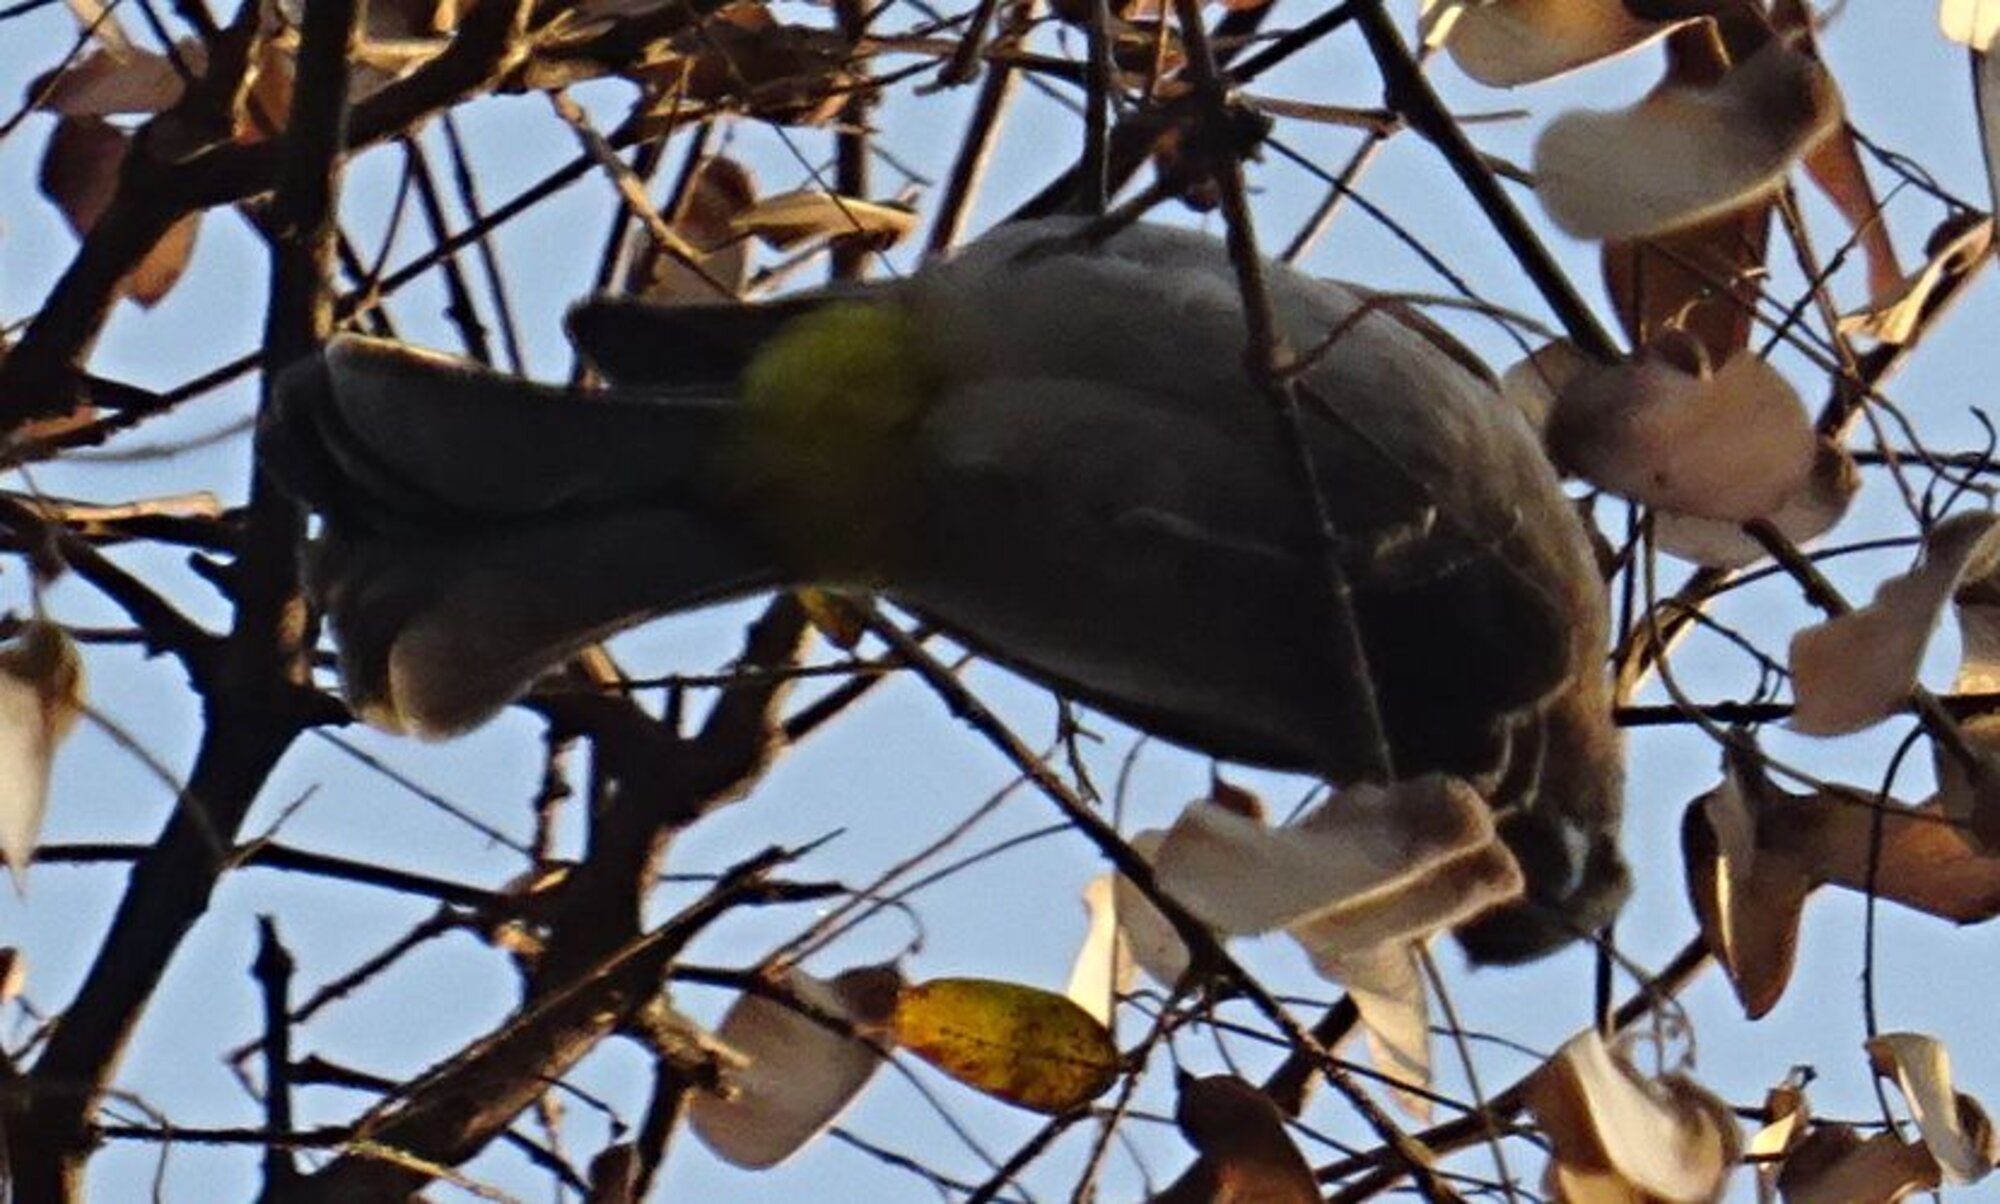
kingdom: Animalia
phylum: Chordata
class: Aves
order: Passeriformes
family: Pycnonotidae
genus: Pycnonotus
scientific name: Pycnonotus barbatus
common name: Common bulbul
